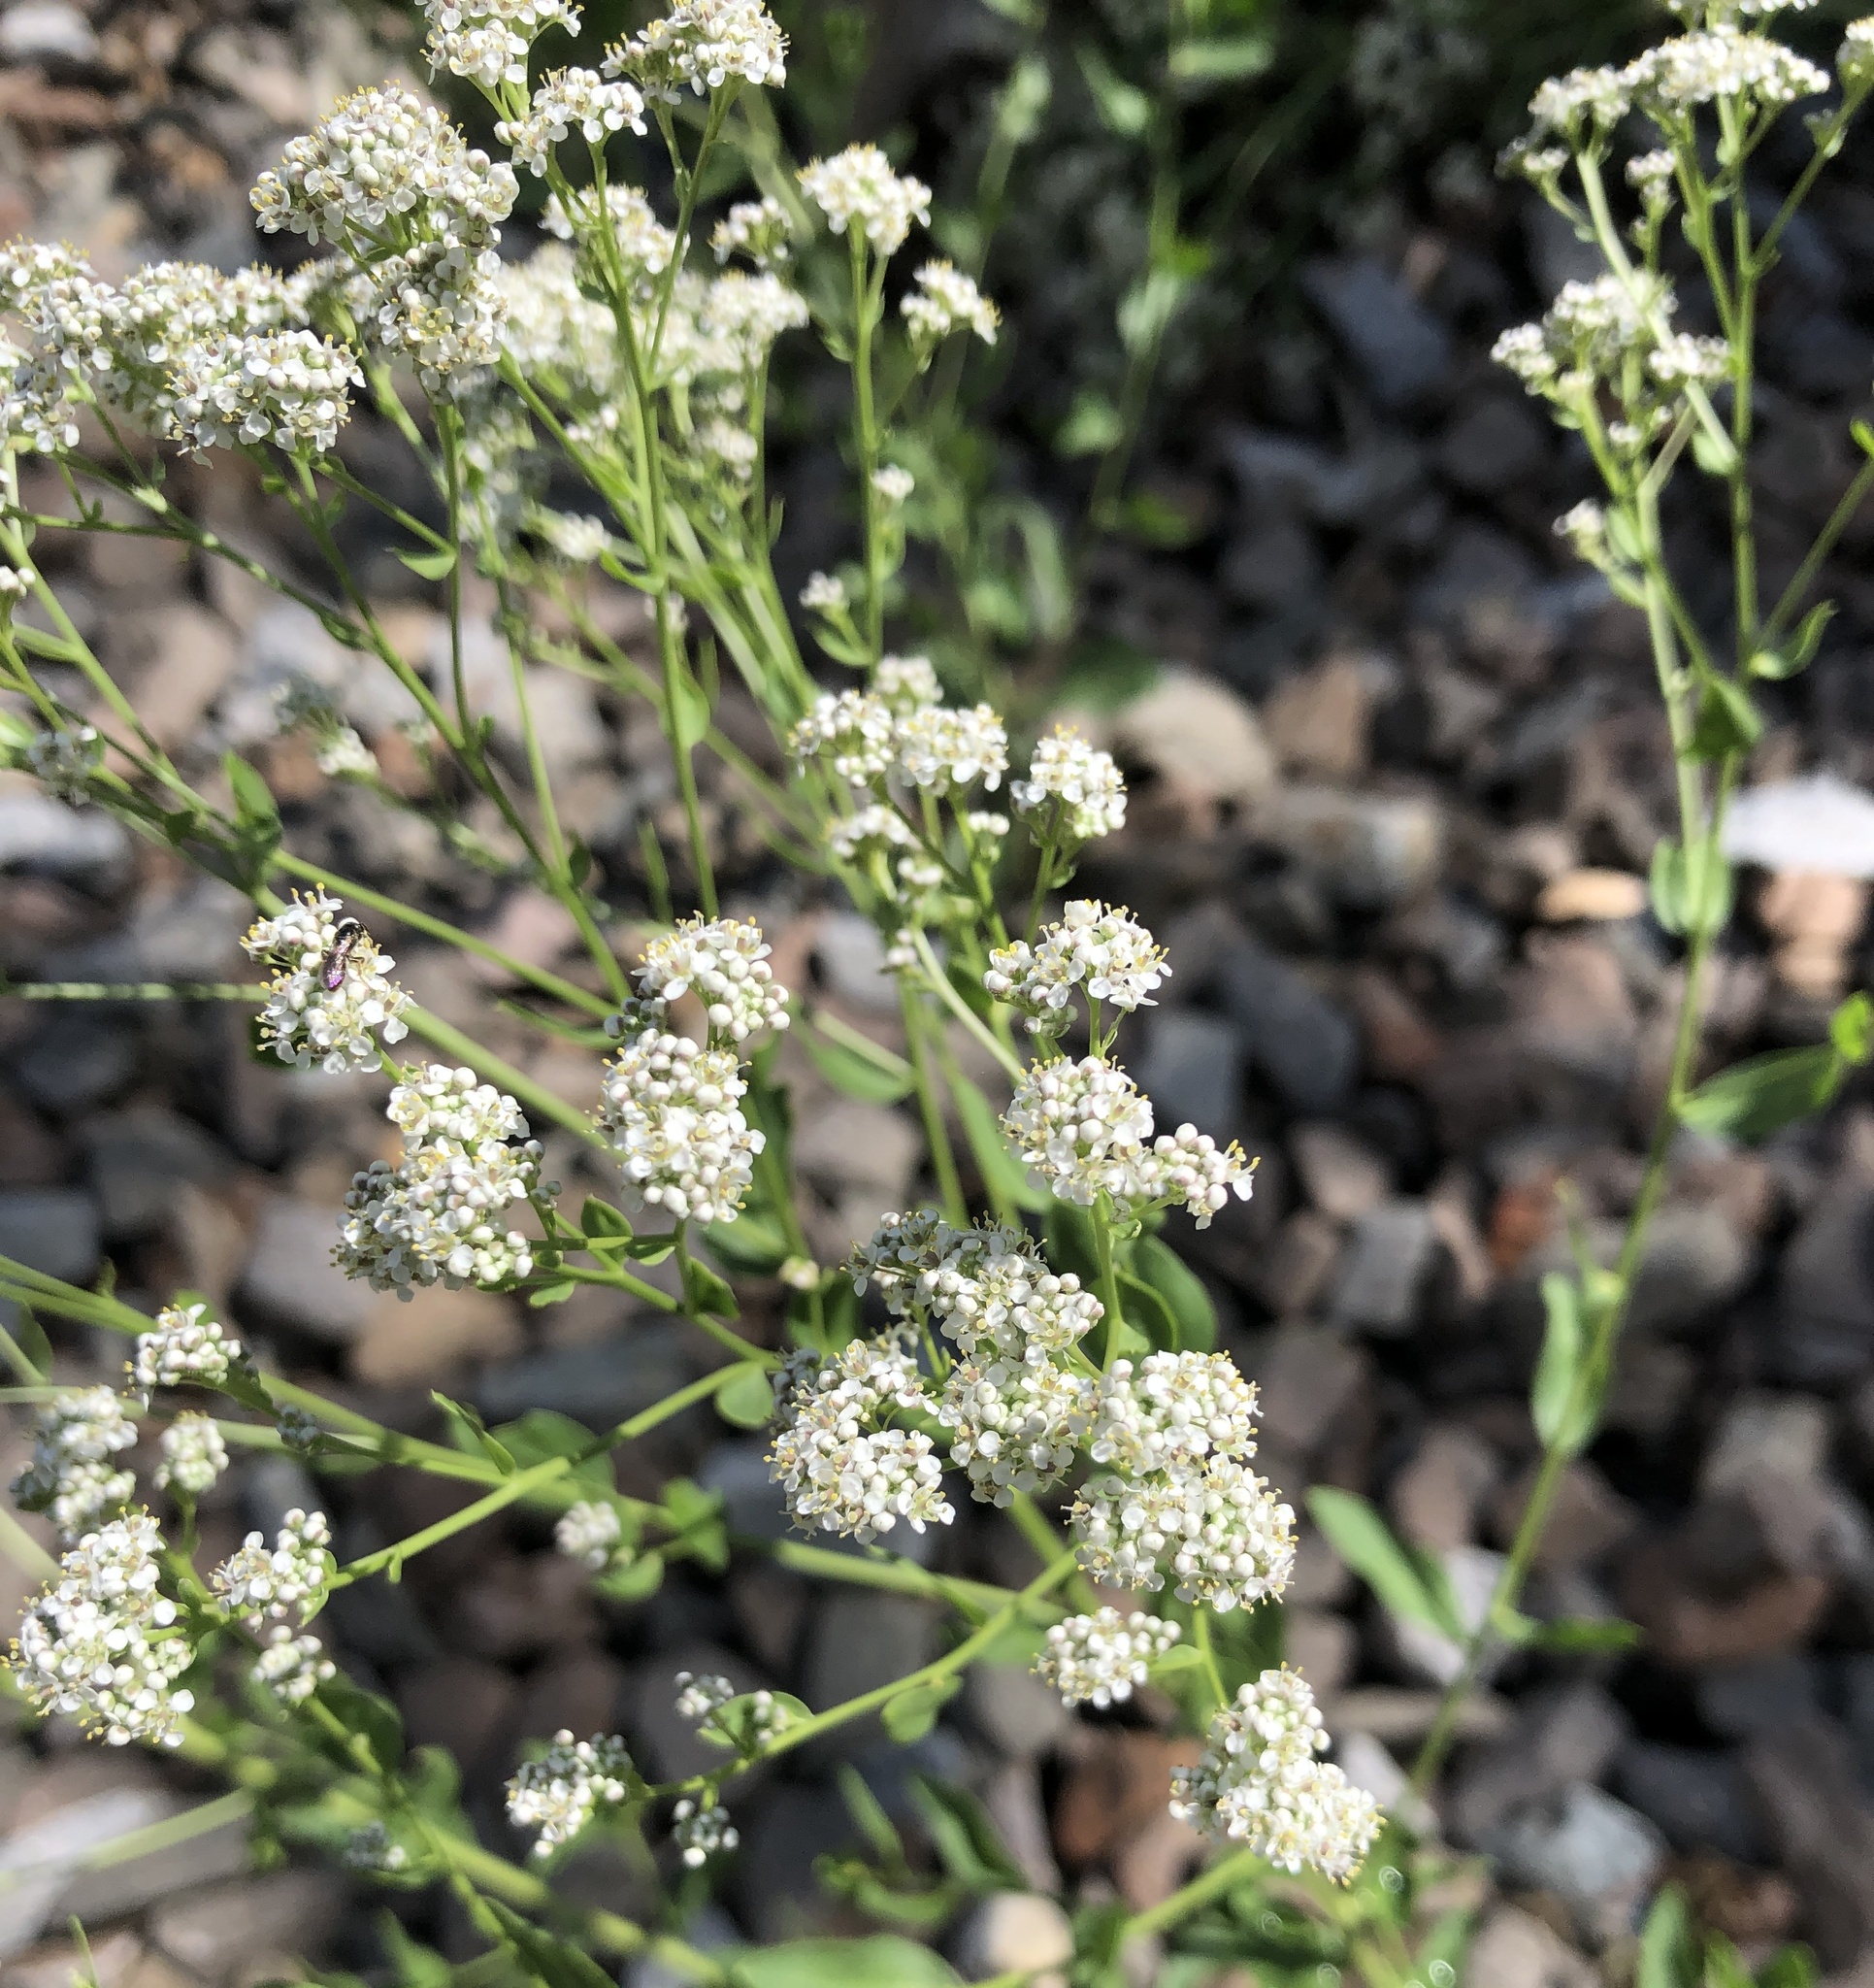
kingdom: Plantae
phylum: Tracheophyta
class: Magnoliopsida
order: Brassicales
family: Brassicaceae
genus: Lepidium
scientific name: Lepidium latifolium
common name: Dittander
